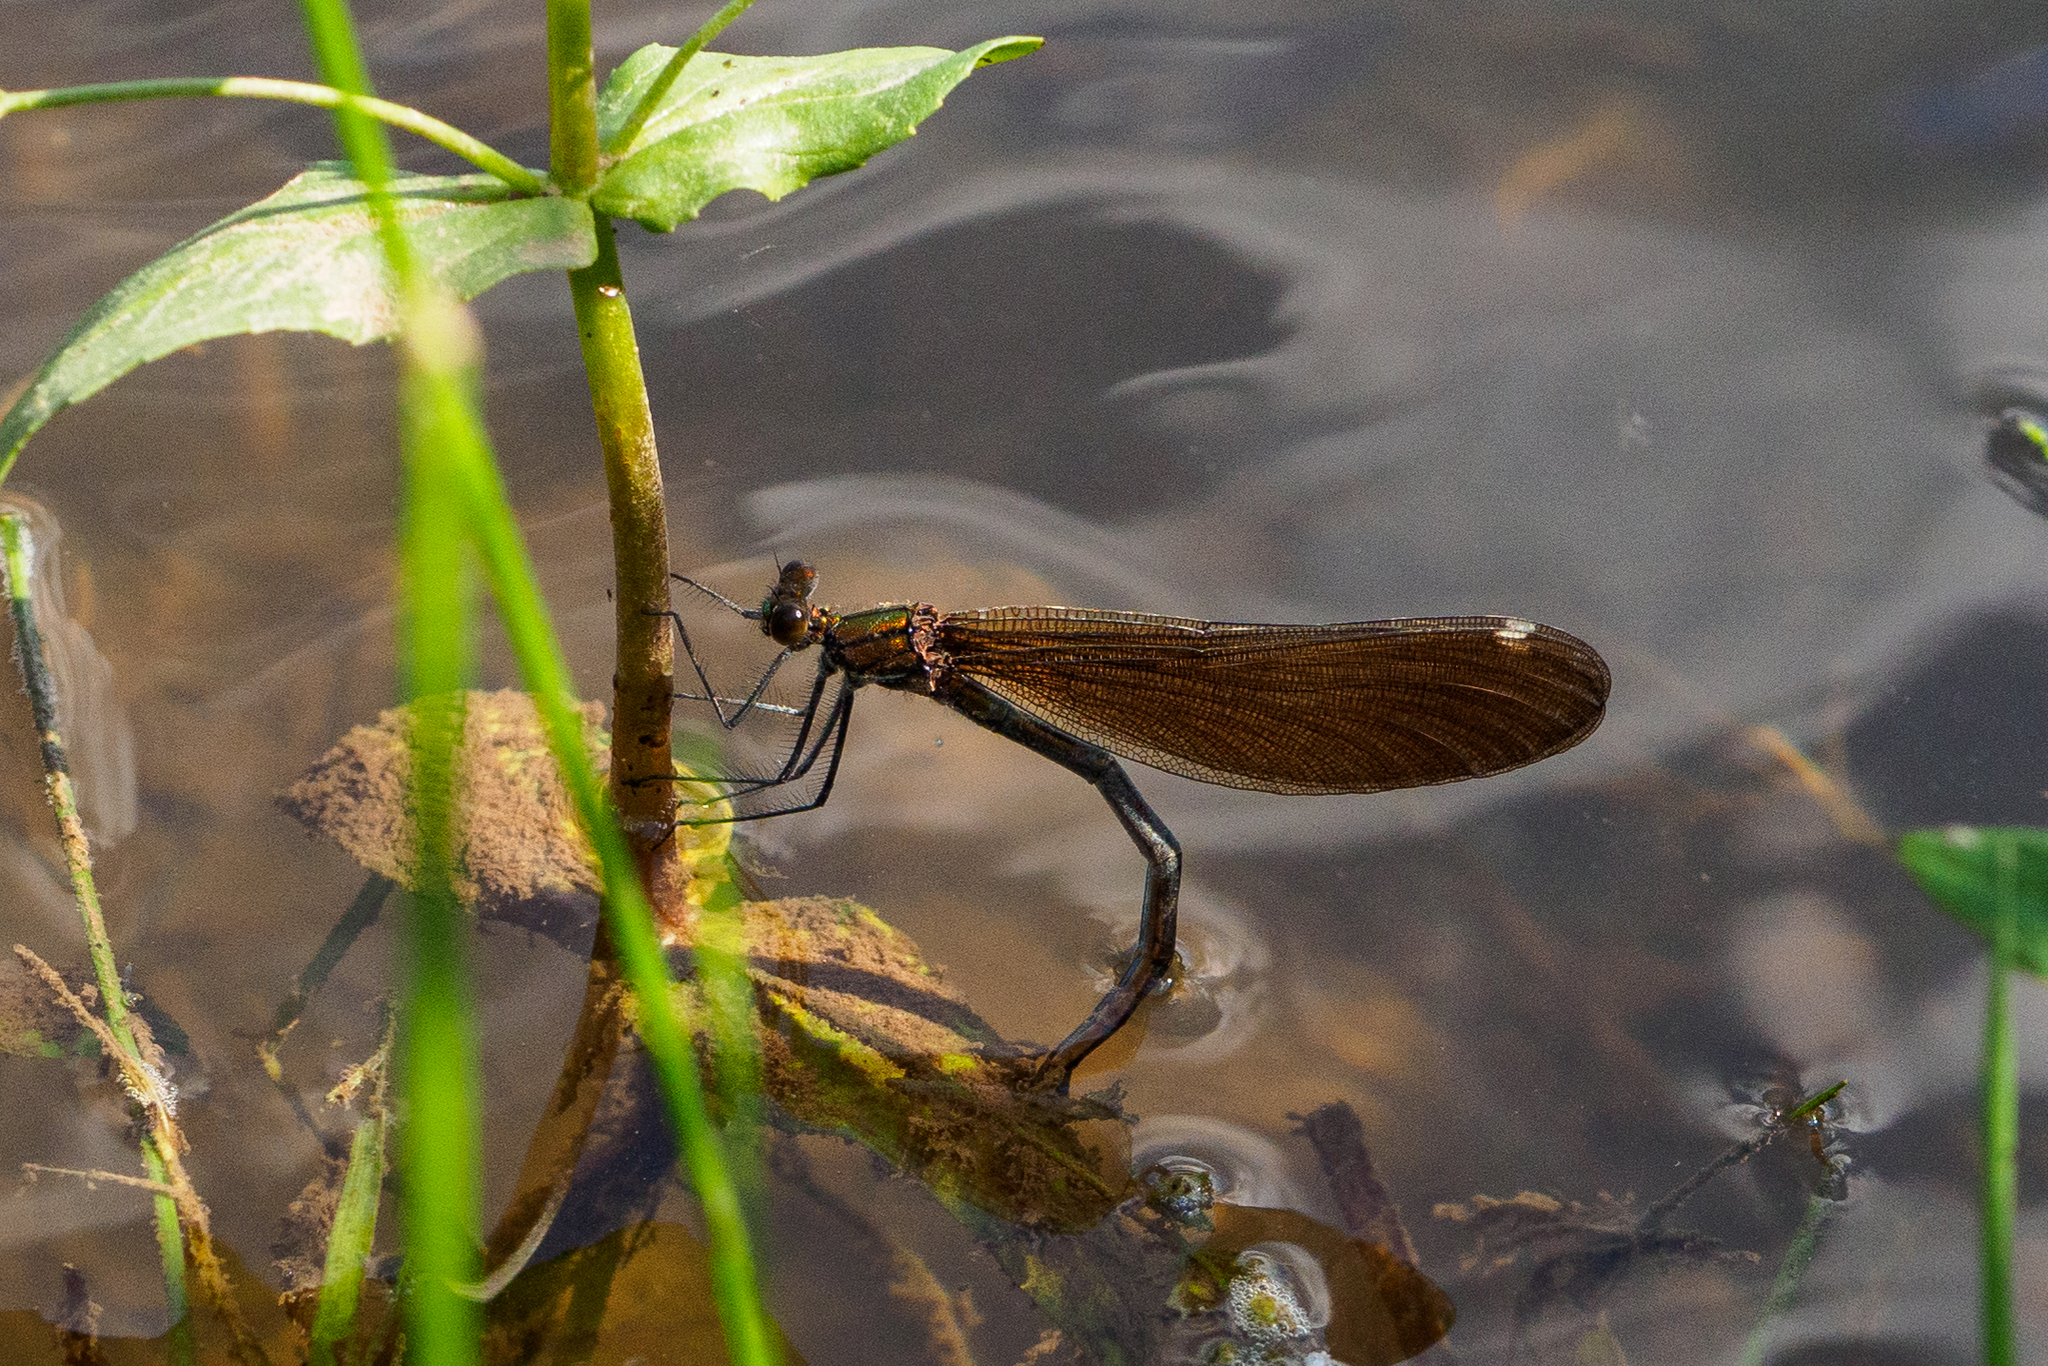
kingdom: Animalia
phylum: Arthropoda
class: Insecta
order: Odonata
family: Calopterygidae
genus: Calopteryx
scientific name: Calopteryx virgo
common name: Beautiful demoiselle
